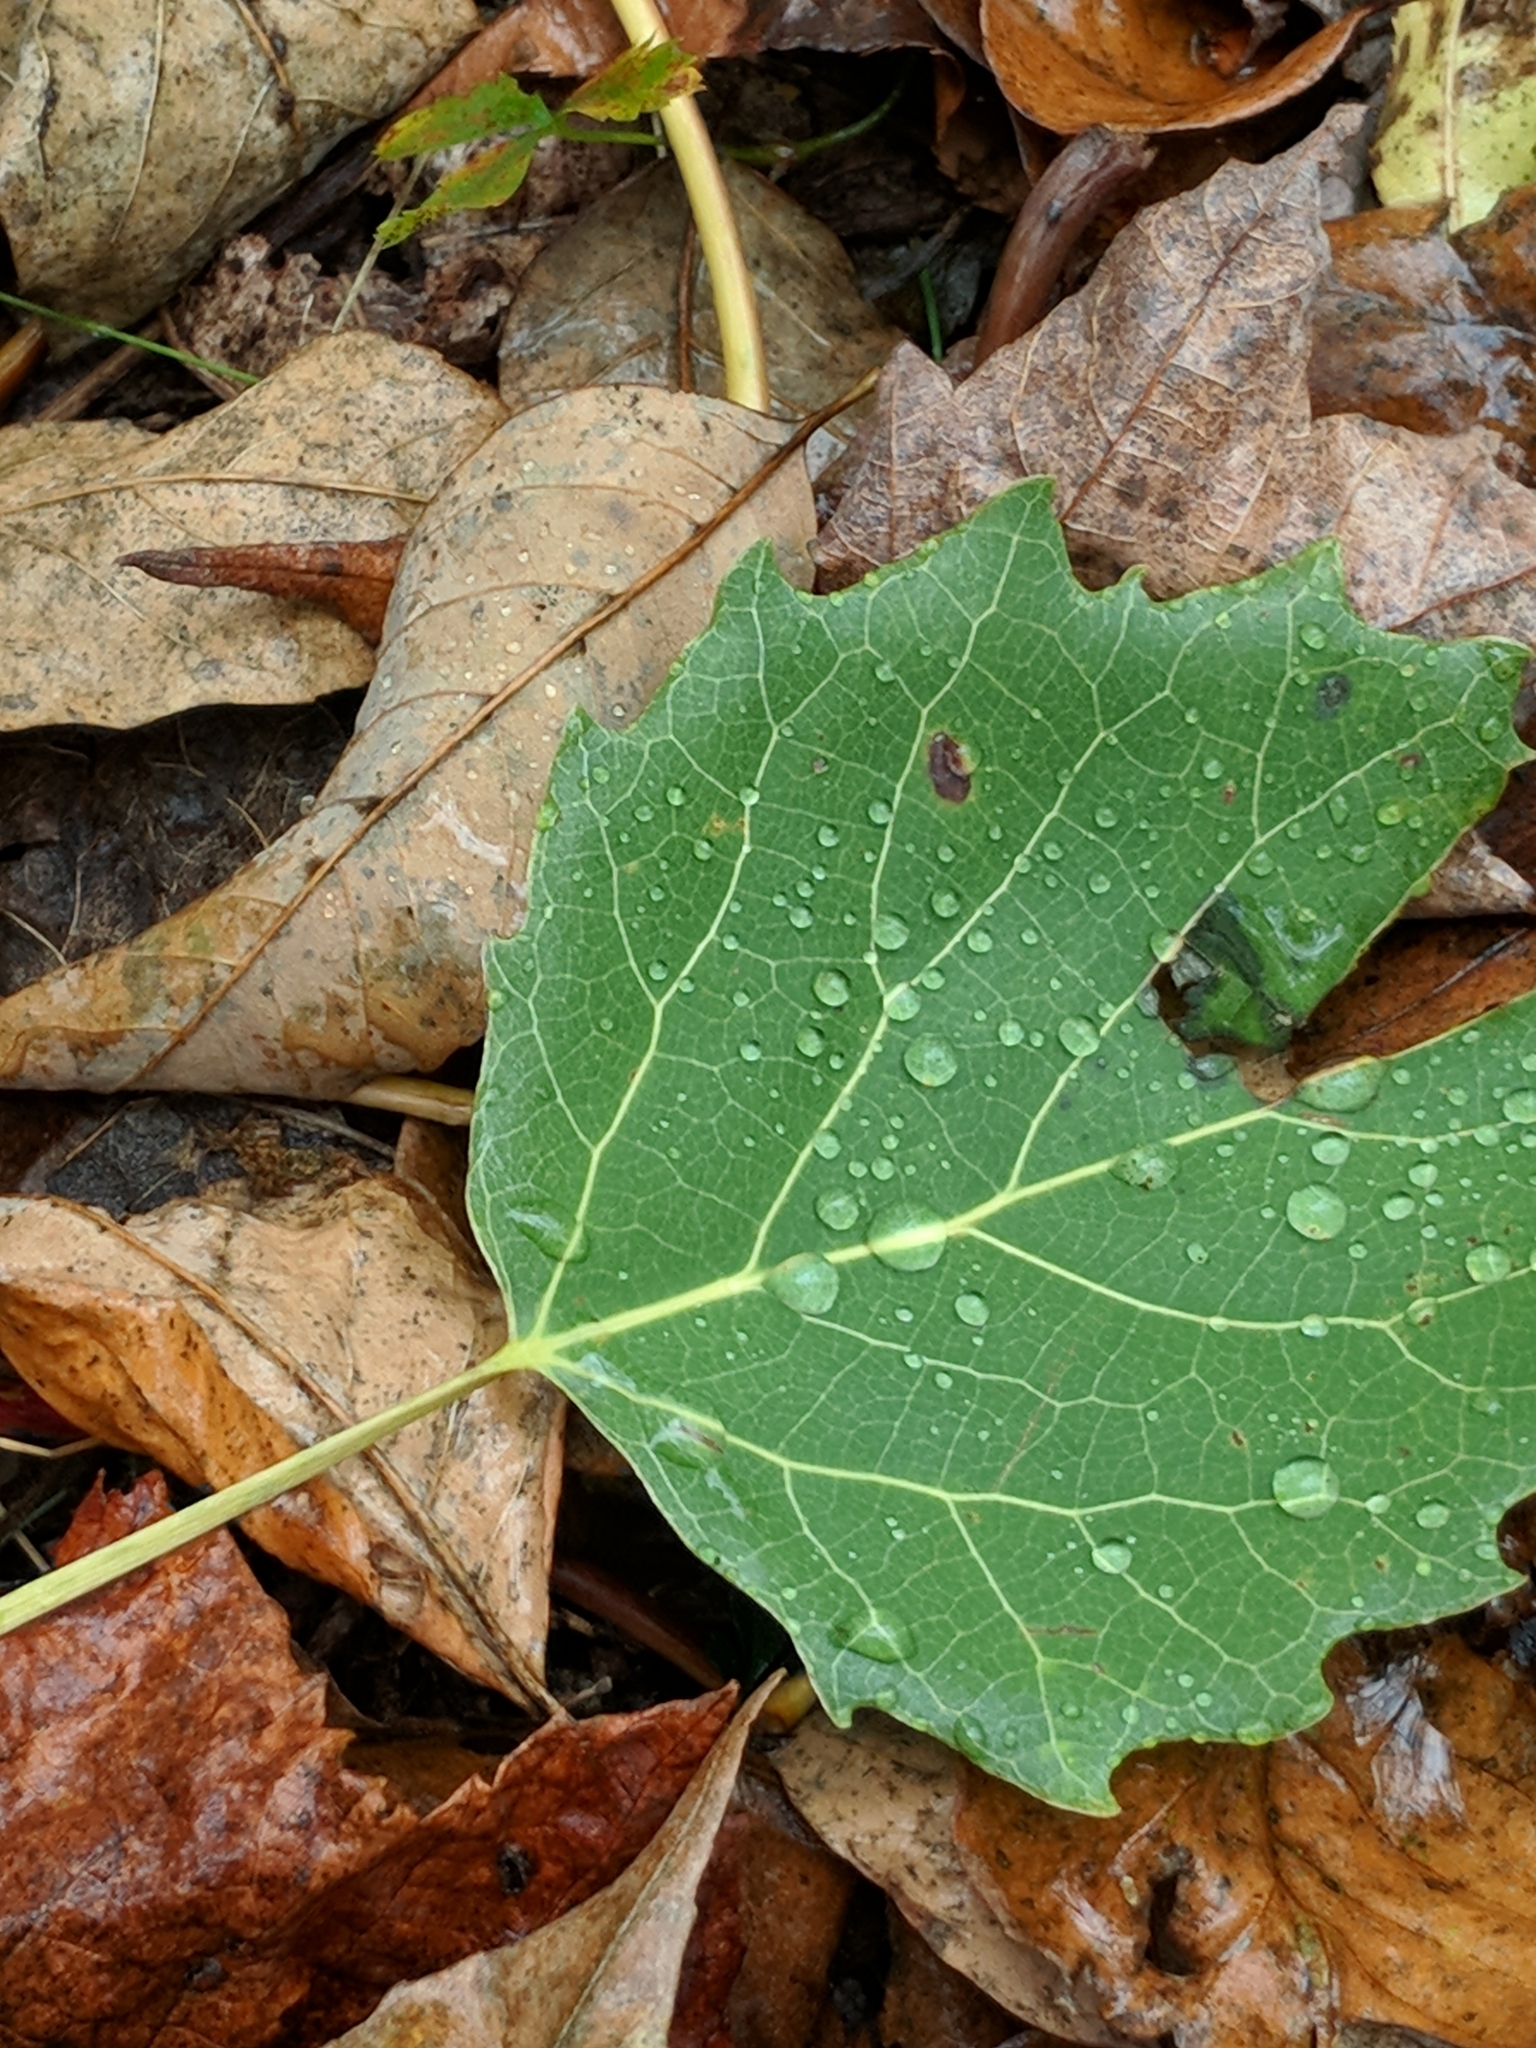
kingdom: Plantae
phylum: Tracheophyta
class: Magnoliopsida
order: Malpighiales
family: Salicaceae
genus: Populus
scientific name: Populus grandidentata
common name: Bigtooth aspen
